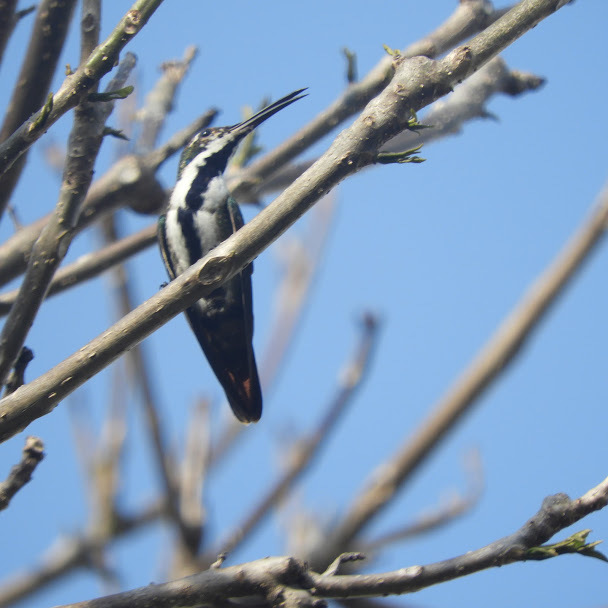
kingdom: Animalia
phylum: Chordata
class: Aves
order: Apodiformes
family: Trochilidae
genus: Anthracothorax
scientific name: Anthracothorax nigricollis
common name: Black-throated mango
